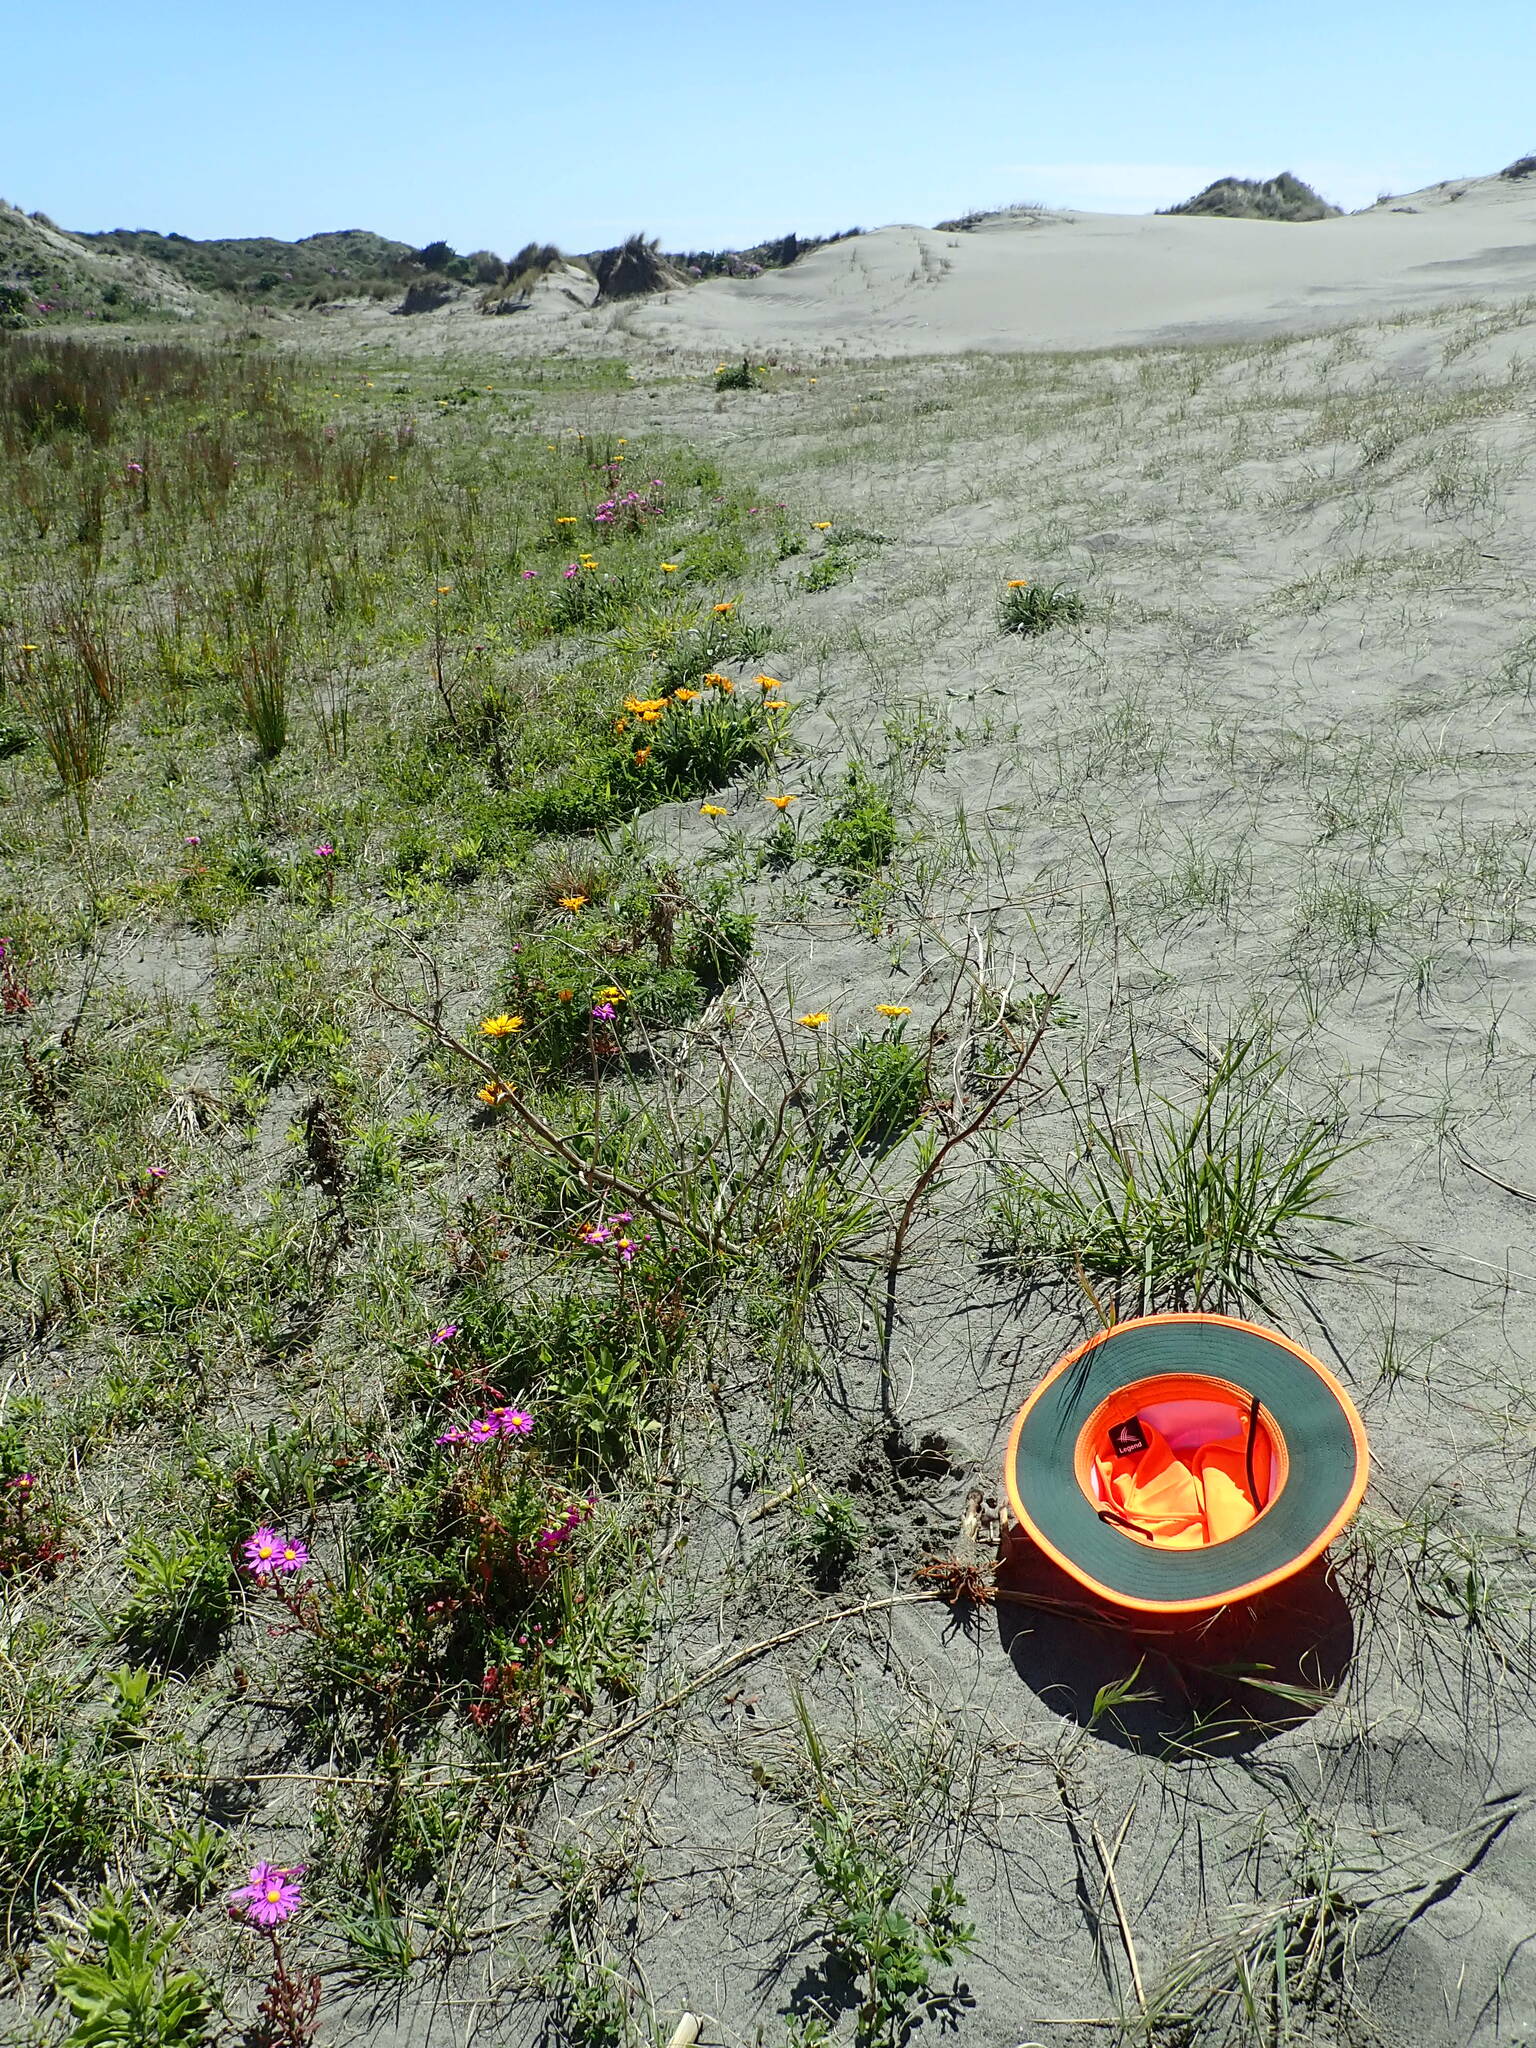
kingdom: Plantae
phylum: Tracheophyta
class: Magnoliopsida
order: Lamiales
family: Orobanchaceae
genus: Orobanche
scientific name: Orobanche minor
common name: Common broomrape
